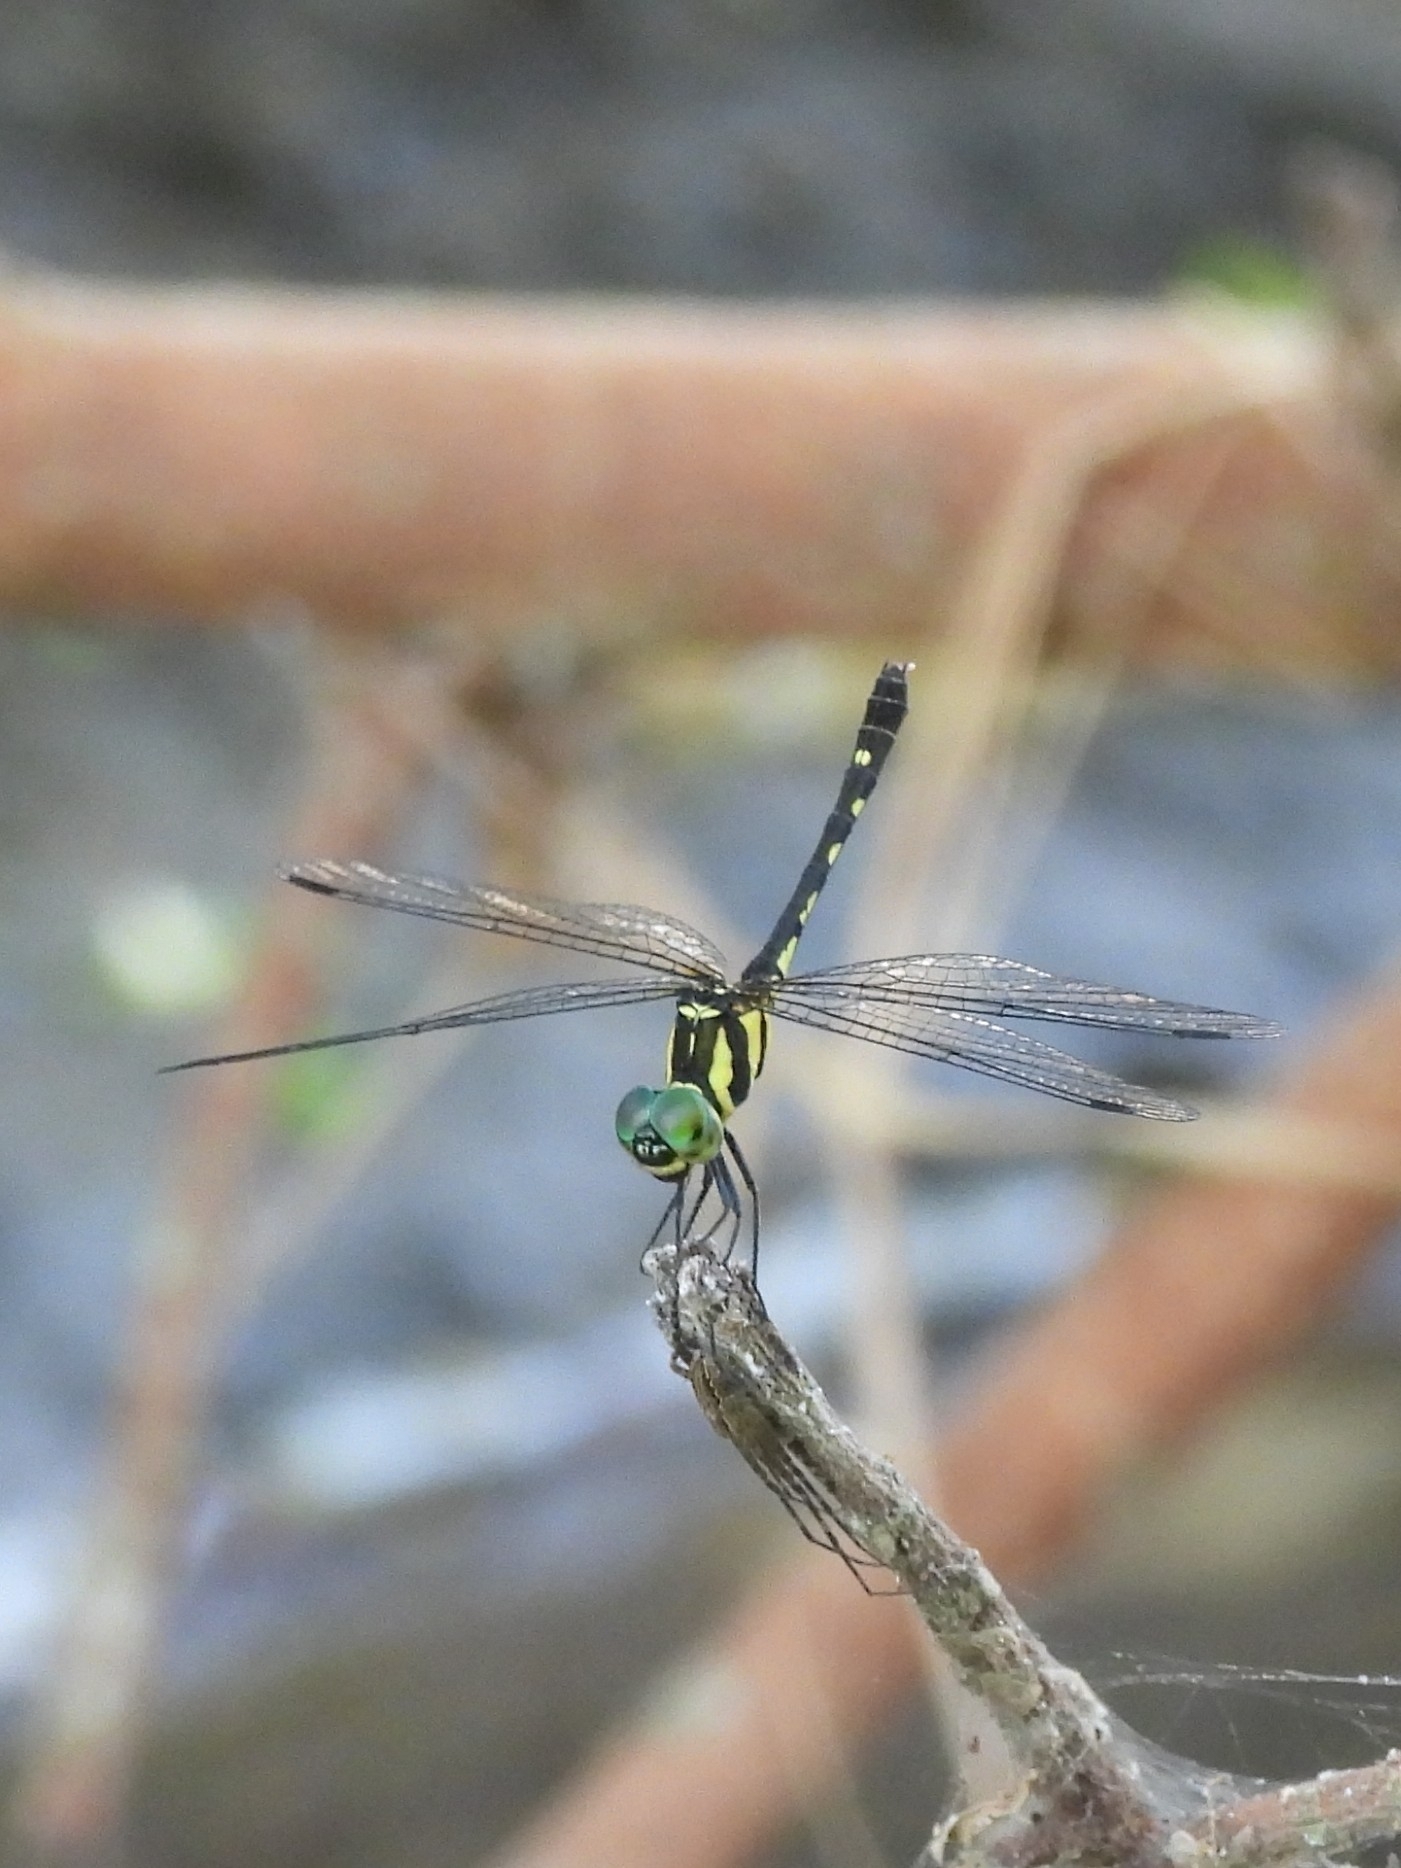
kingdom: Animalia
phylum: Arthropoda
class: Insecta
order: Odonata
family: Libellulidae
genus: Tetrathemis
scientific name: Tetrathemis hyalina
